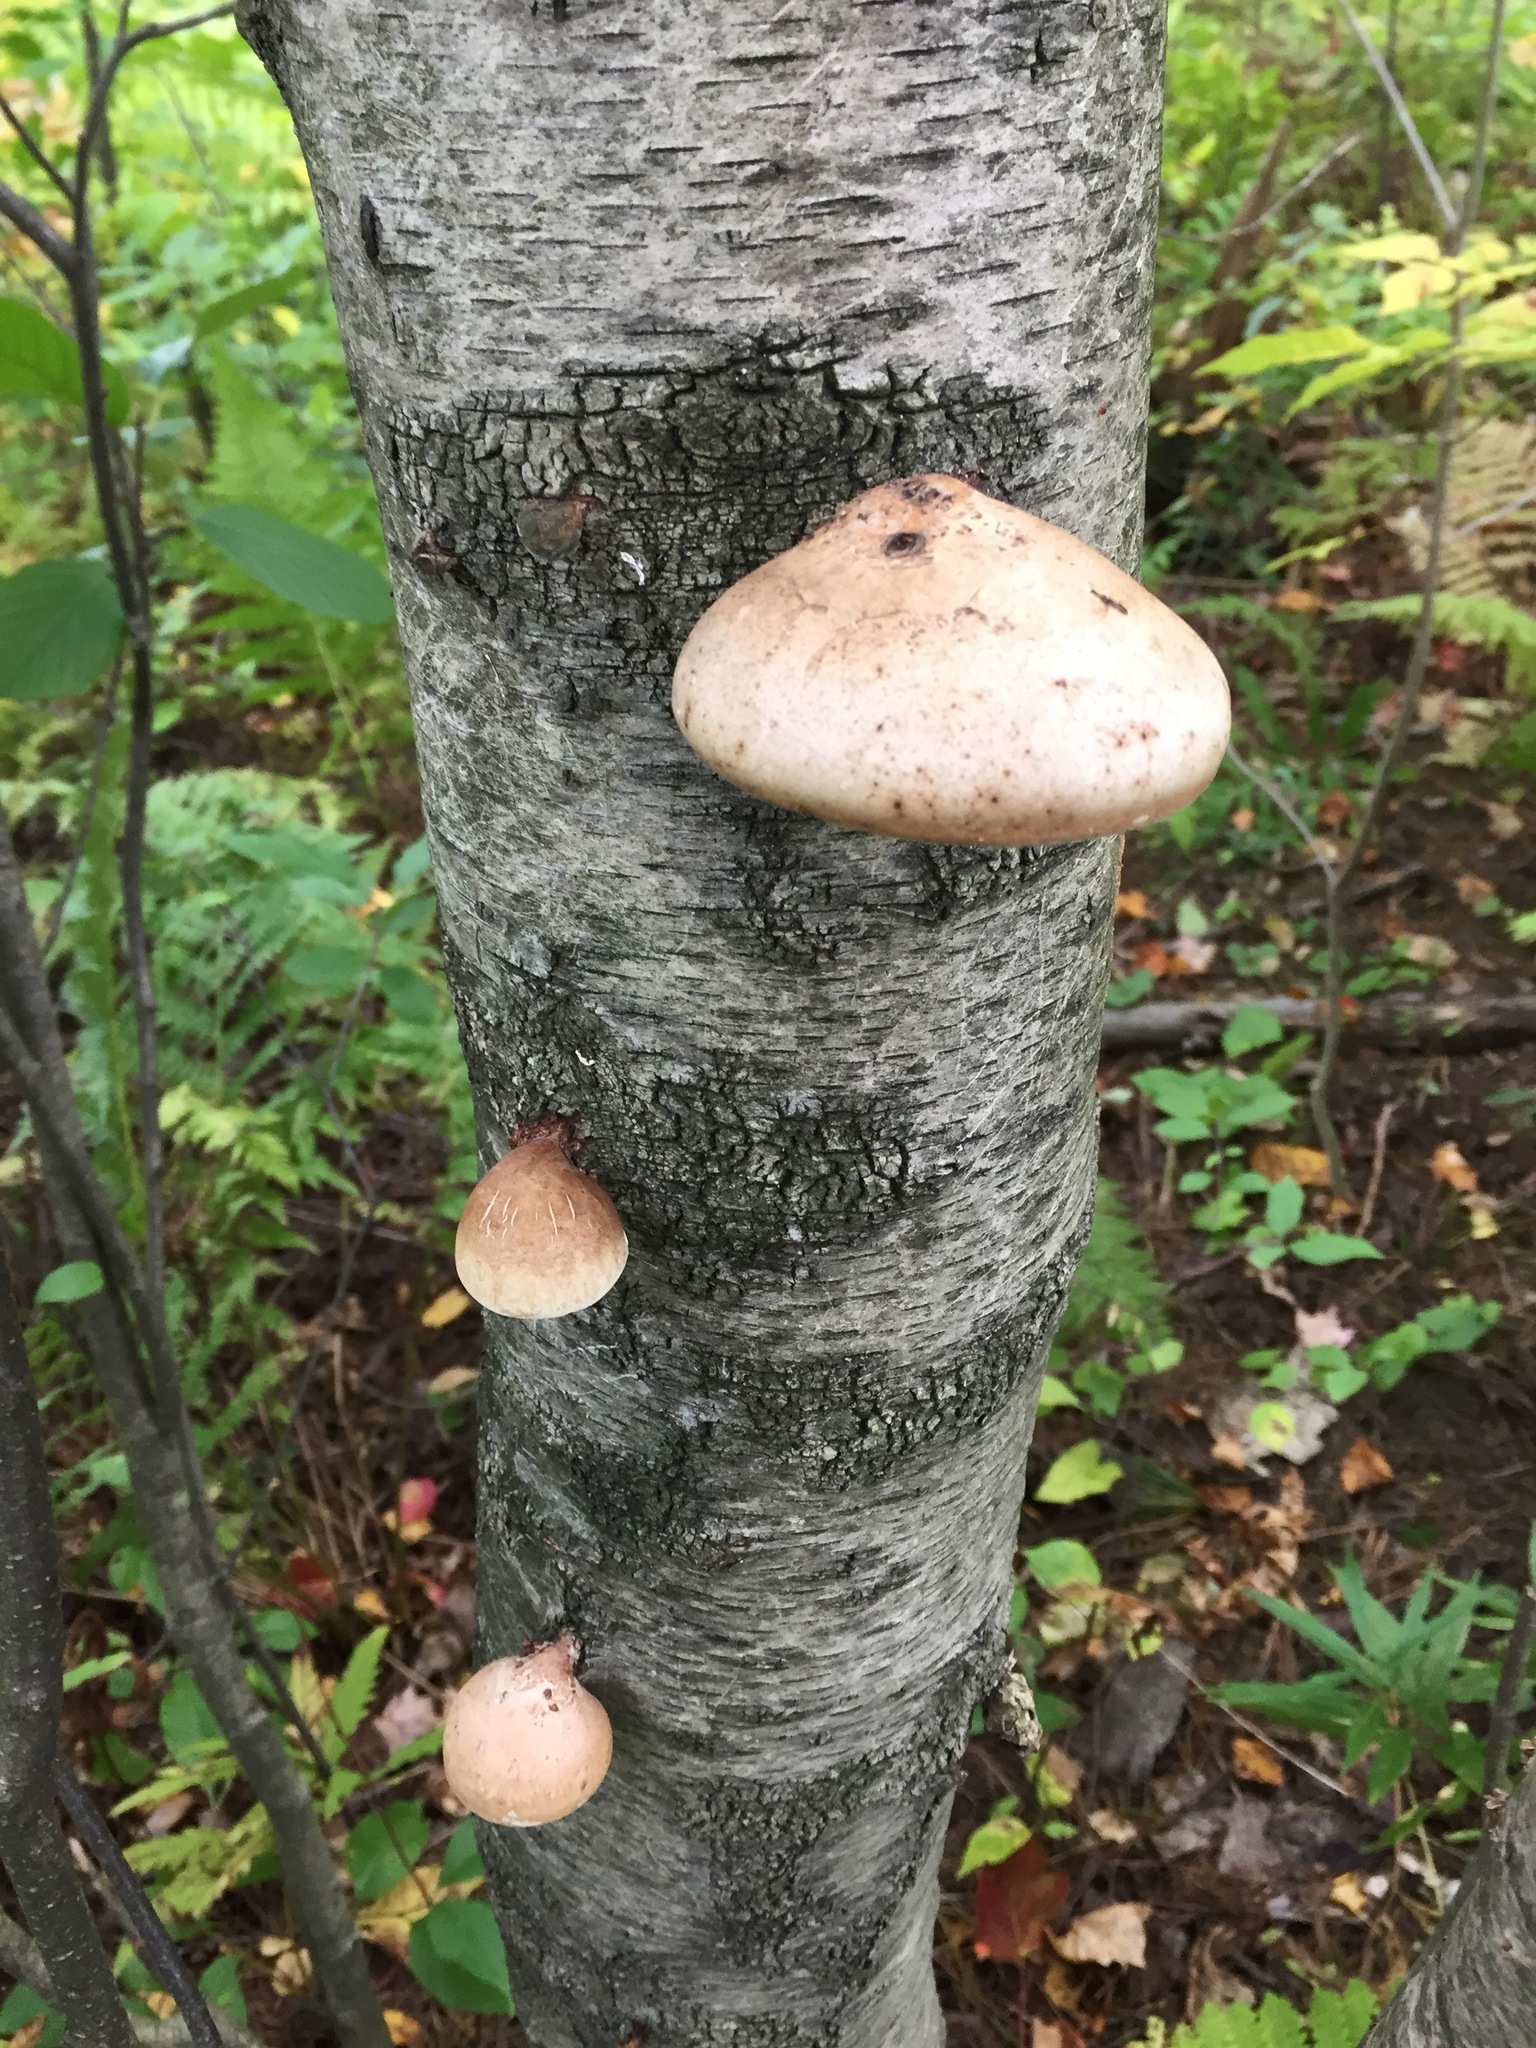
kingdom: Fungi
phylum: Basidiomycota
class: Agaricomycetes
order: Polyporales
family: Fomitopsidaceae
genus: Fomitopsis
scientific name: Fomitopsis betulina
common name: Birch polypore
